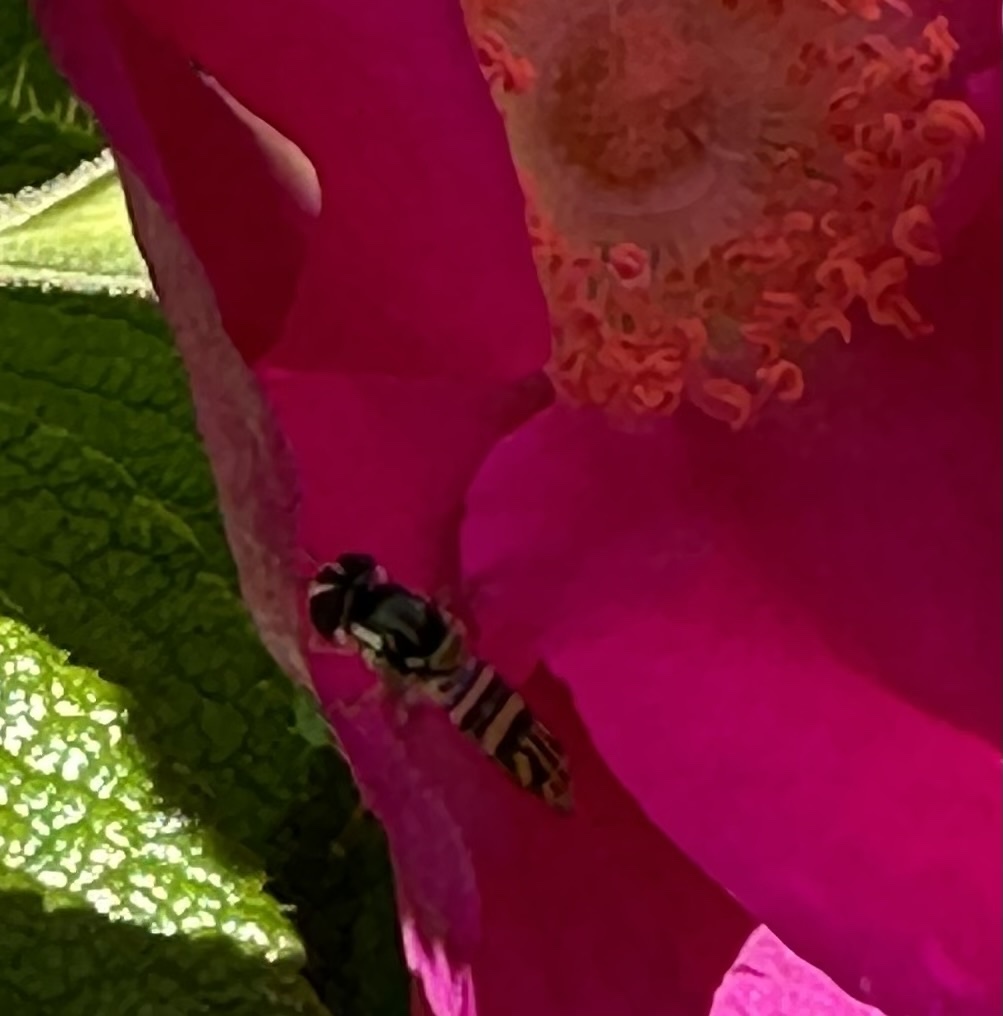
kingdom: Animalia
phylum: Arthropoda
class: Insecta
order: Diptera
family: Syrphidae
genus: Allograpta
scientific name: Allograpta obliqua
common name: Common oblique syrphid
